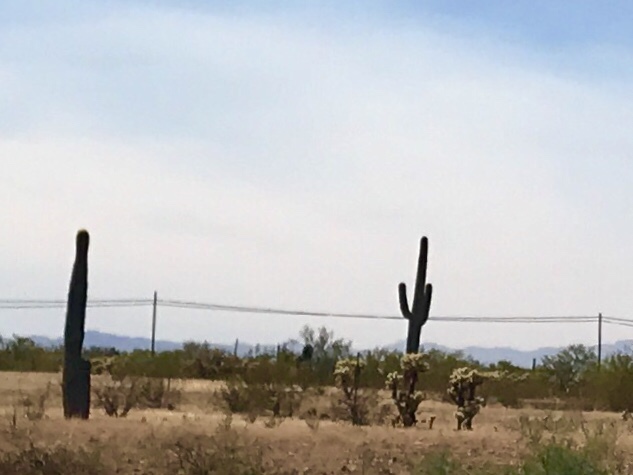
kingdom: Plantae
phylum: Tracheophyta
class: Magnoliopsida
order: Caryophyllales
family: Cactaceae
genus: Carnegiea
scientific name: Carnegiea gigantea
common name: Saguaro
